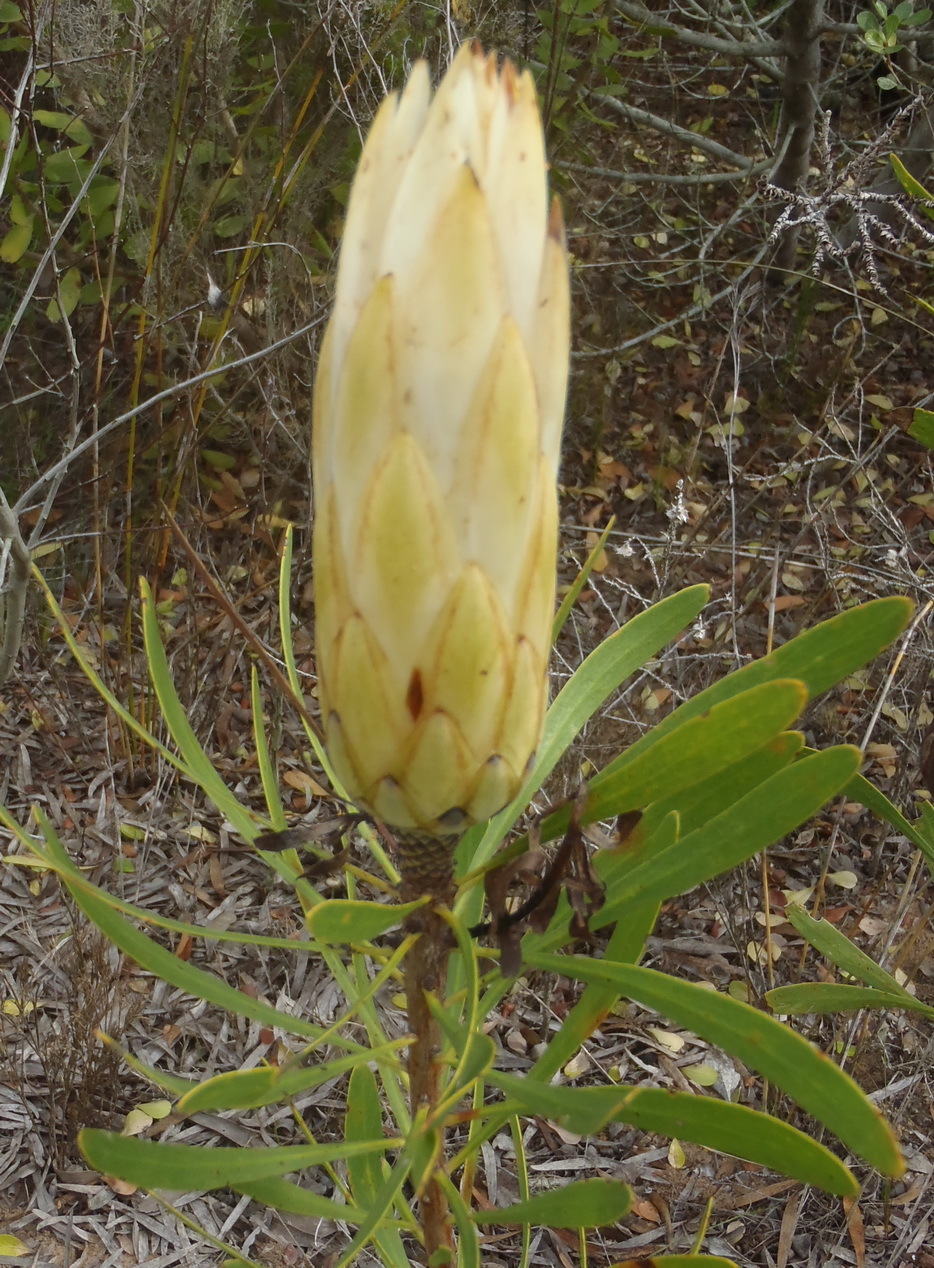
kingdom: Plantae
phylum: Tracheophyta
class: Magnoliopsida
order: Proteales
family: Proteaceae
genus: Protea
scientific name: Protea repens
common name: Sugarbush
